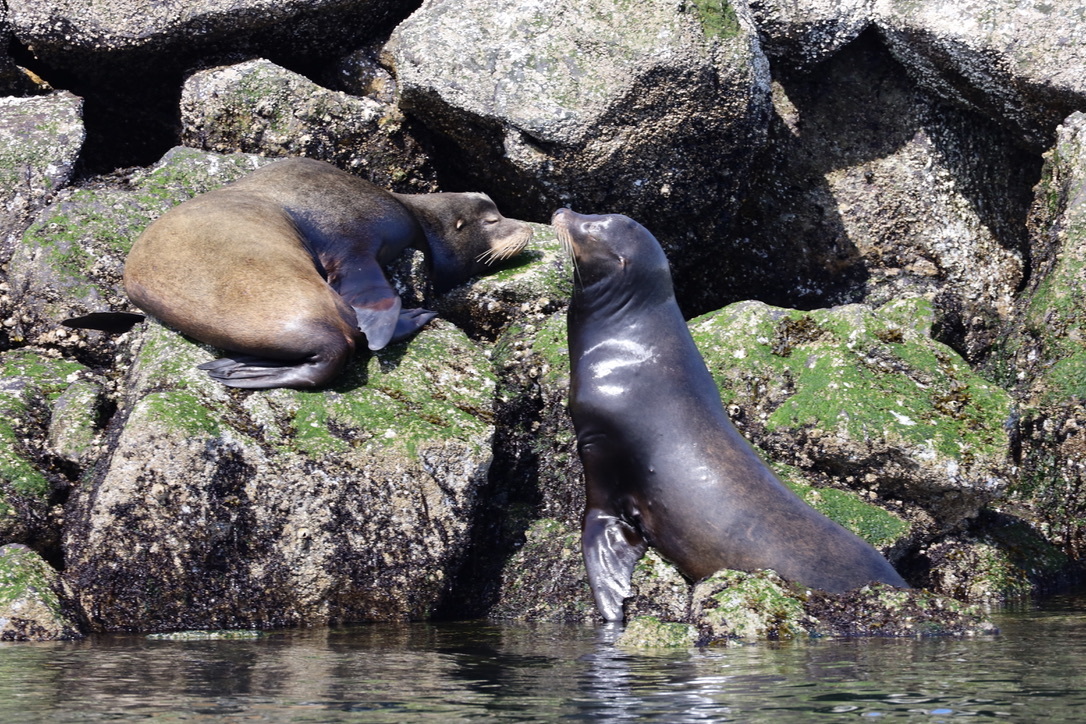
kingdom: Animalia
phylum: Chordata
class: Mammalia
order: Carnivora
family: Otariidae
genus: Zalophus
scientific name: Zalophus californianus
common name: California sea lion
